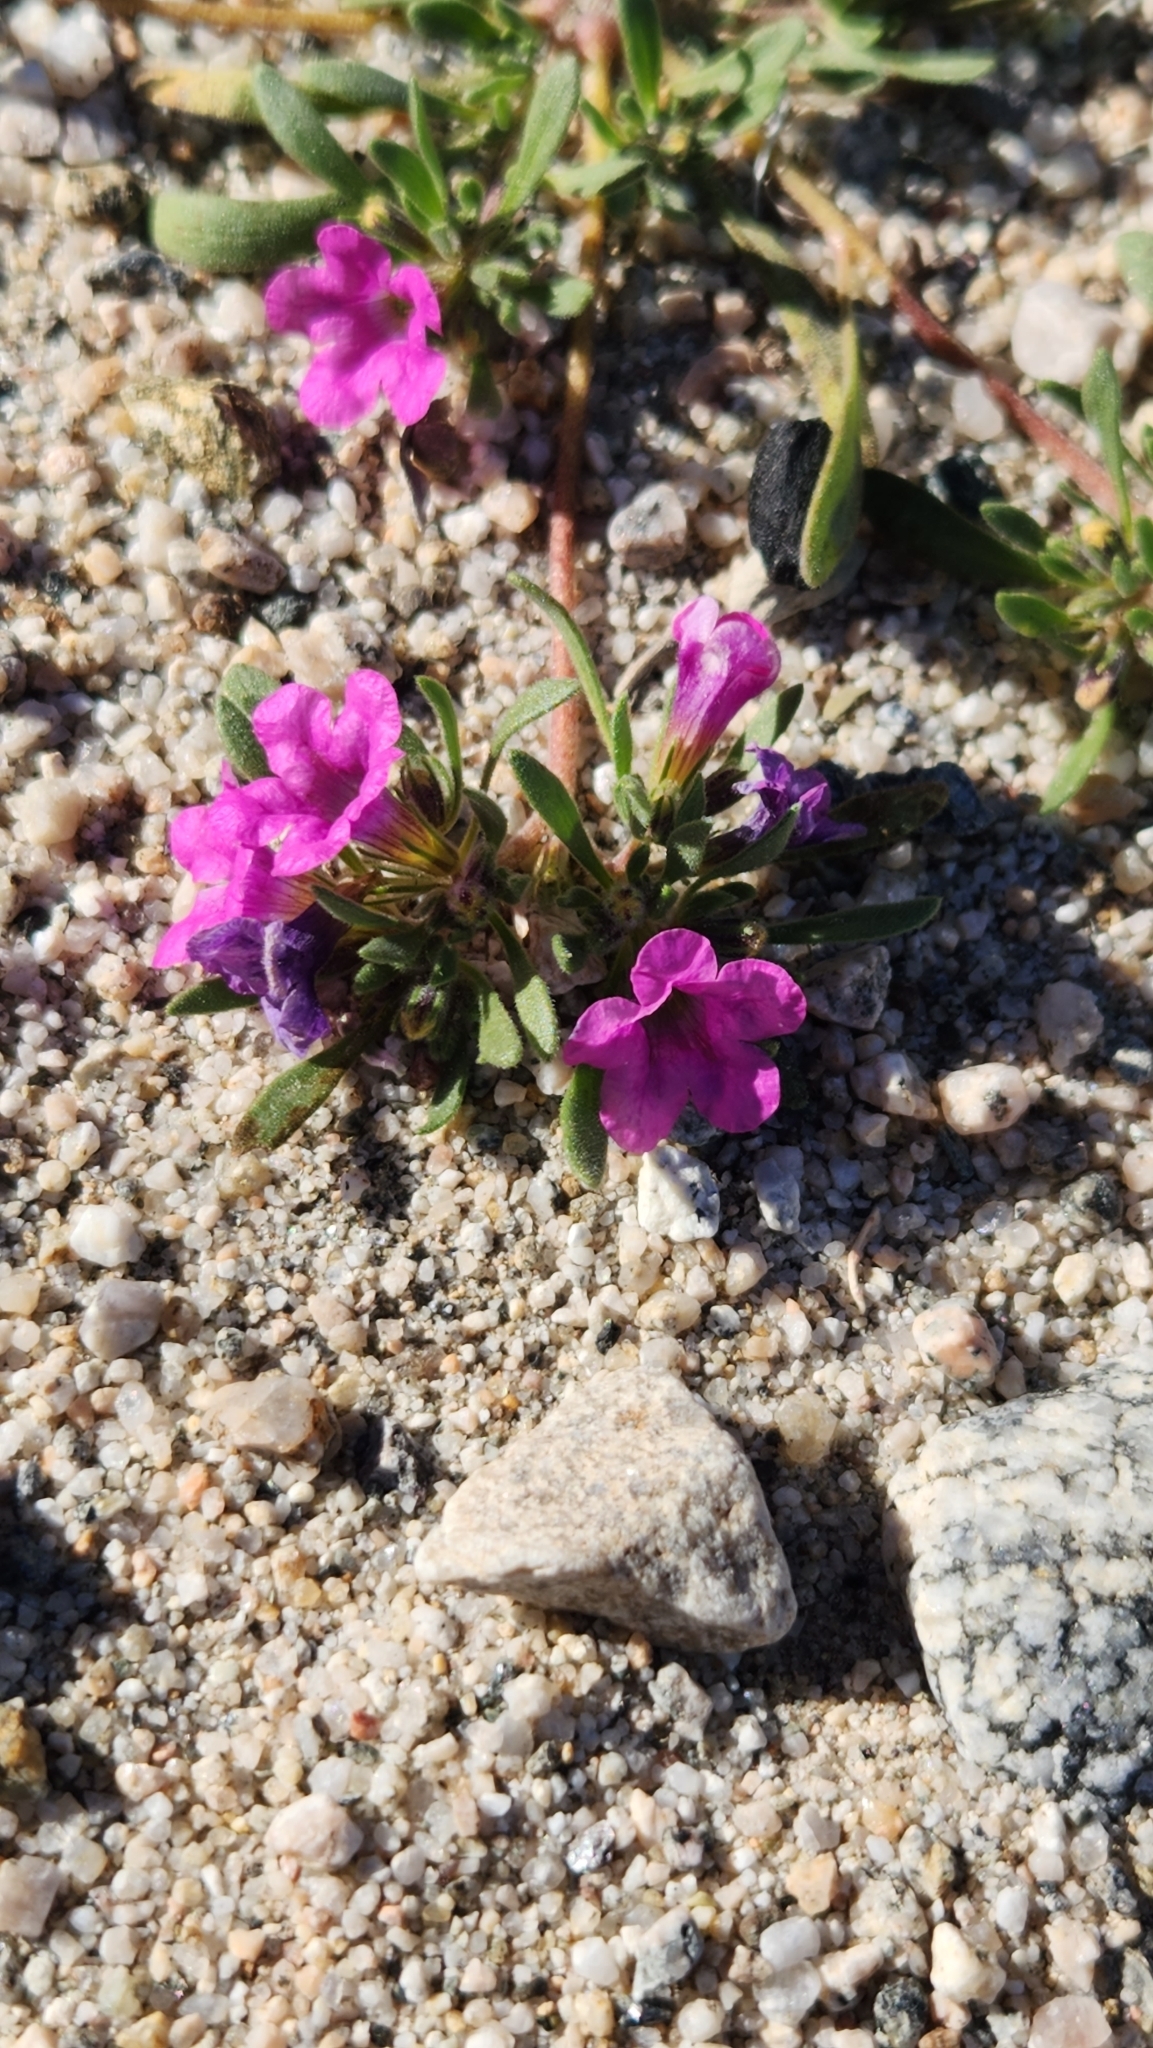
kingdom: Plantae
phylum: Tracheophyta
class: Magnoliopsida
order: Boraginales
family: Namaceae
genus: Nama
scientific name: Nama demissa
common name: Leafy nama
